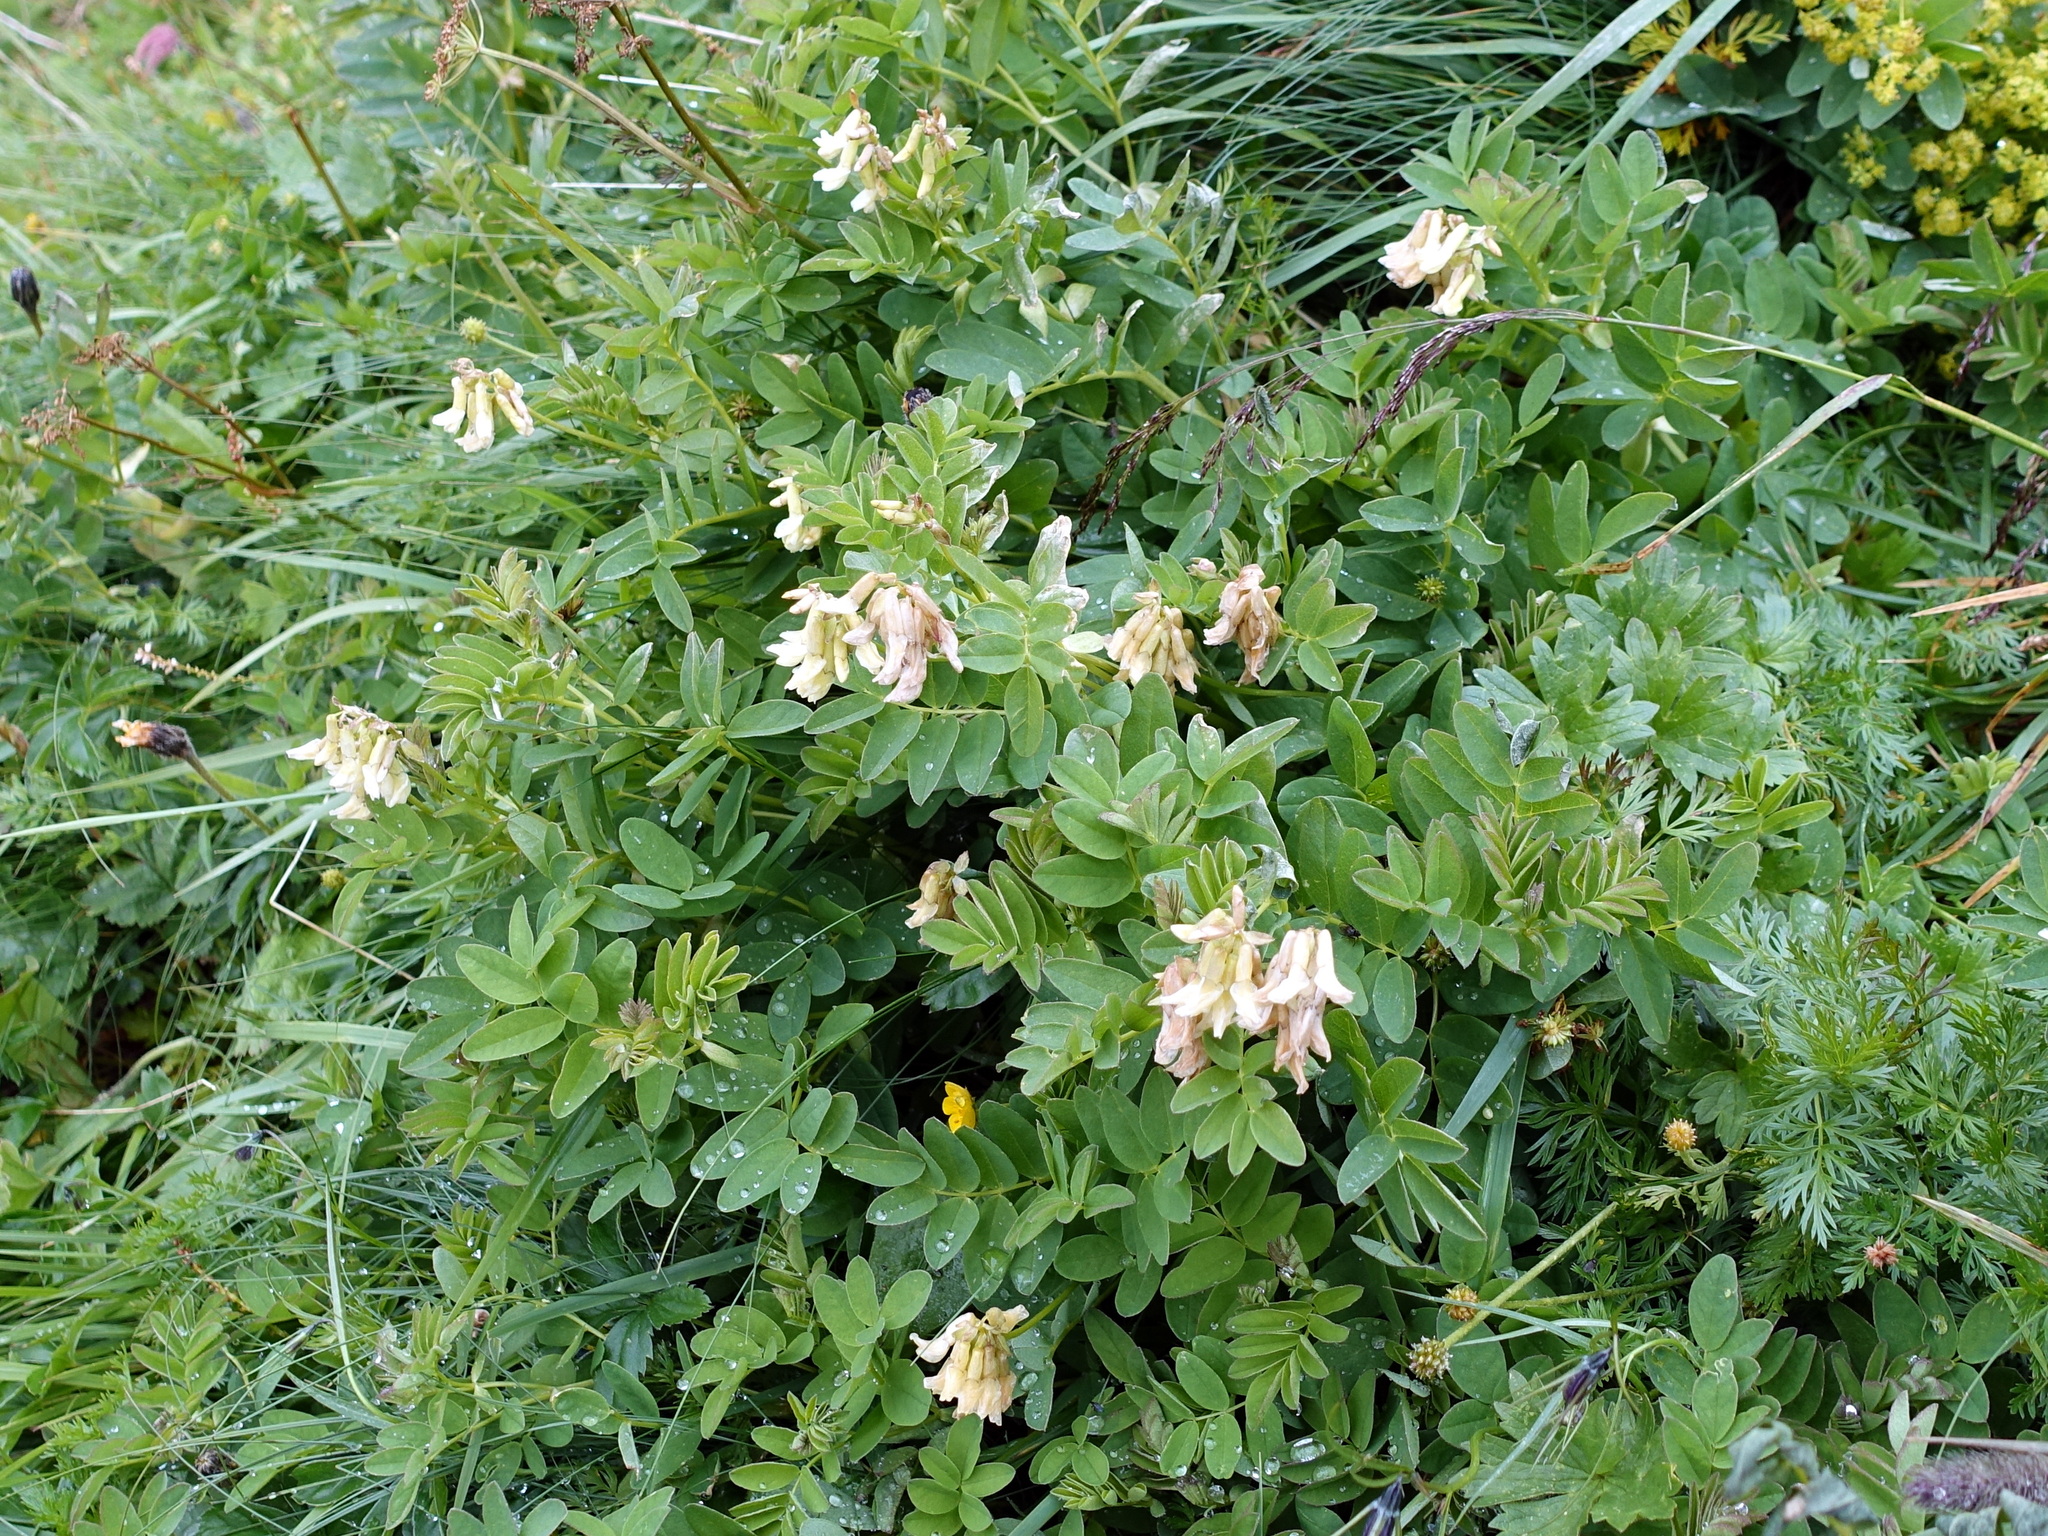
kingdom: Plantae
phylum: Tracheophyta
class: Magnoliopsida
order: Fabales
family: Fabaceae
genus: Astragalus
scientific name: Astragalus frigidus
